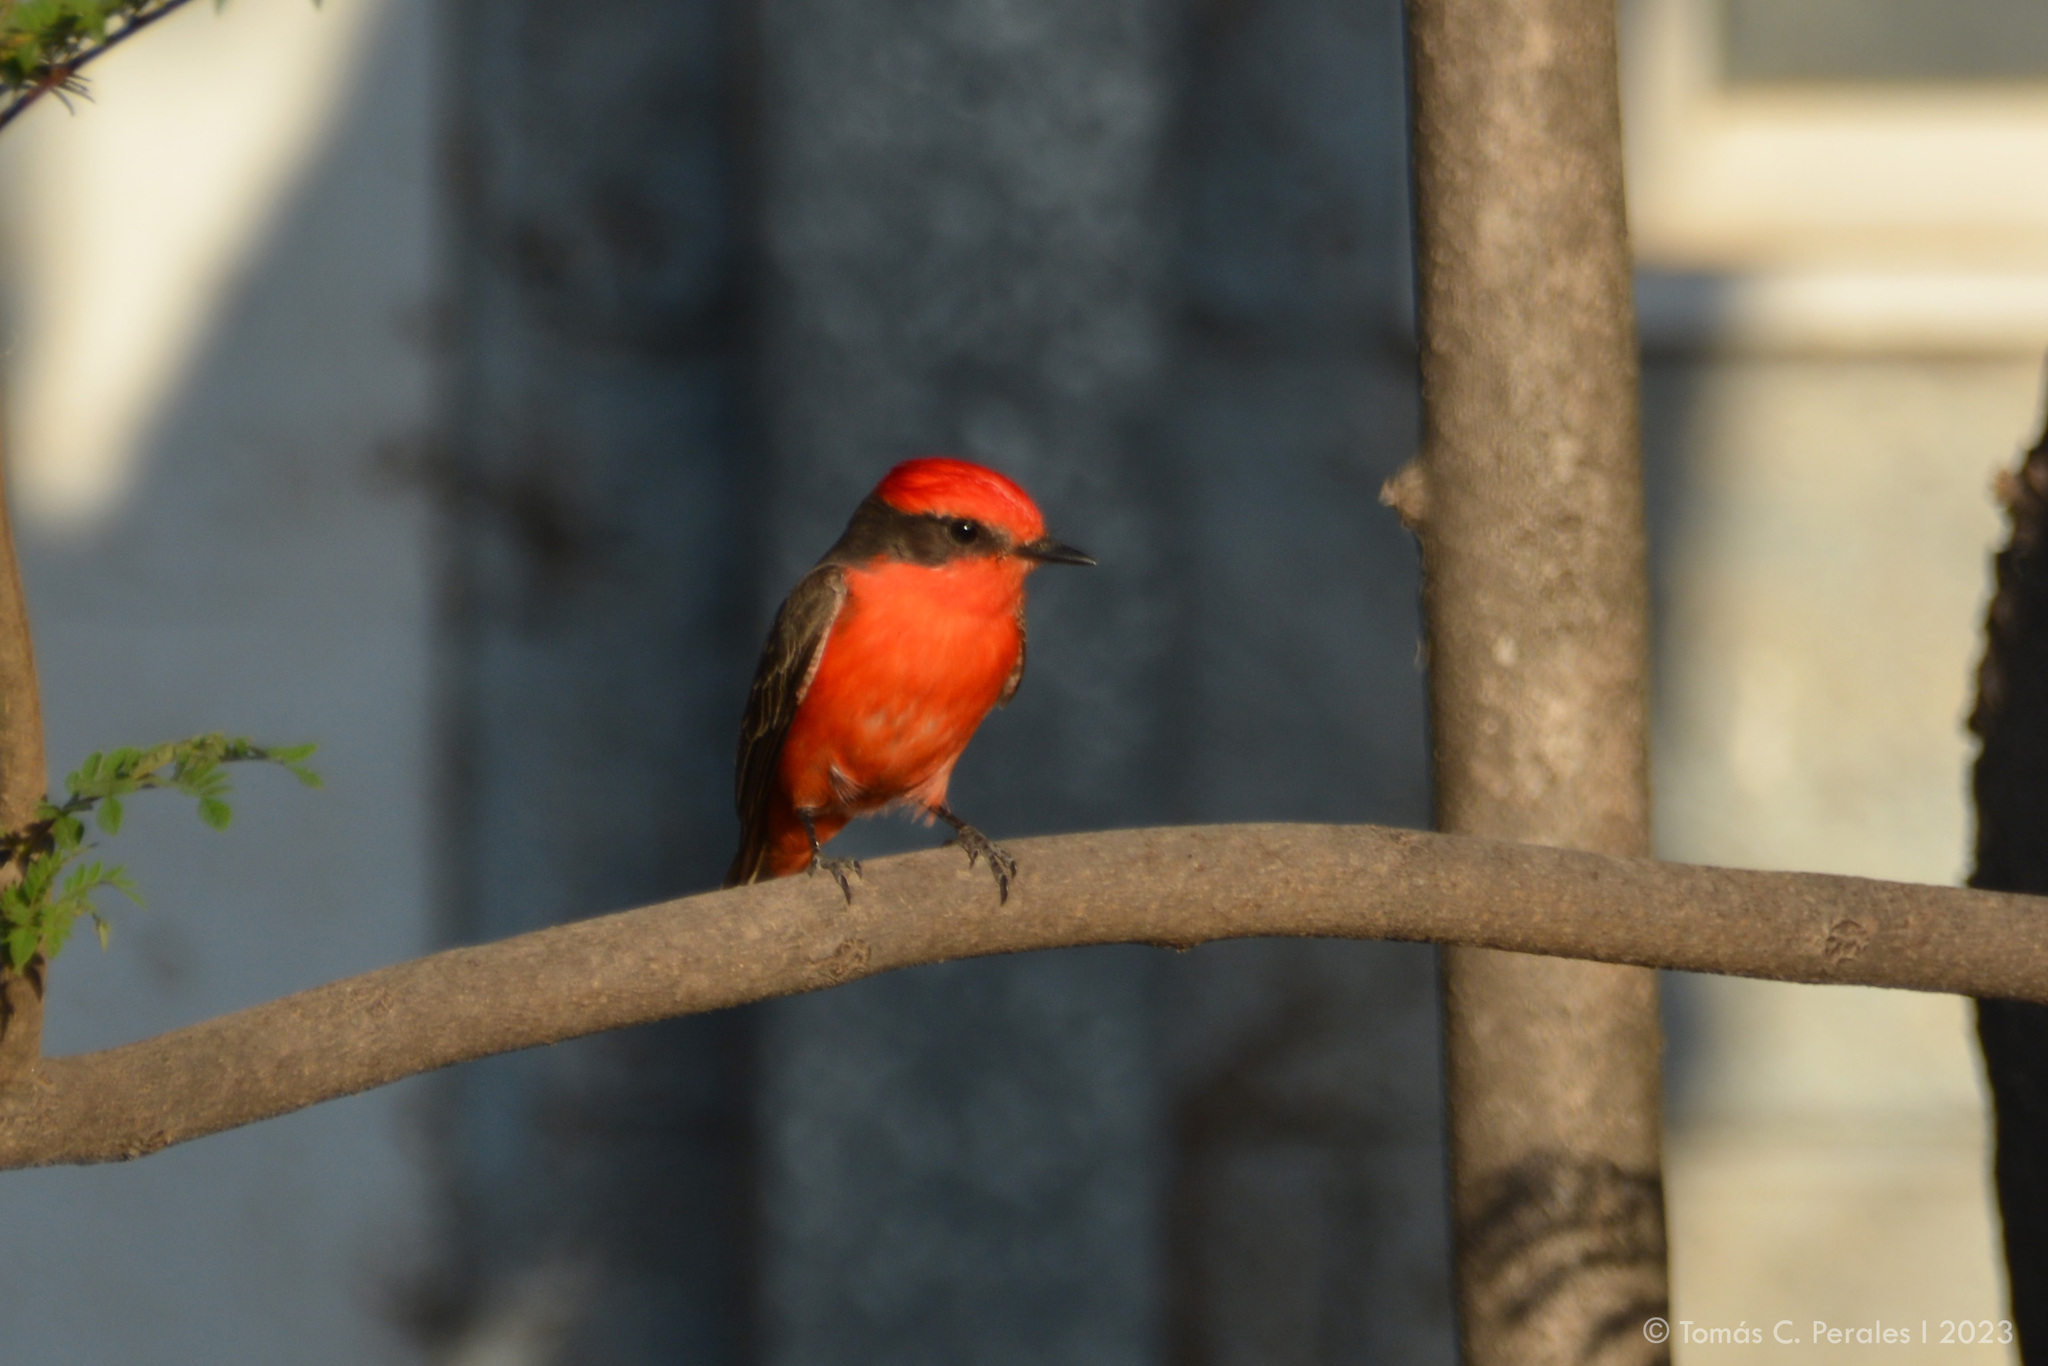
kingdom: Animalia
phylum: Chordata
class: Aves
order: Passeriformes
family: Tyrannidae
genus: Pyrocephalus
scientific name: Pyrocephalus rubinus
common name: Vermilion flycatcher
